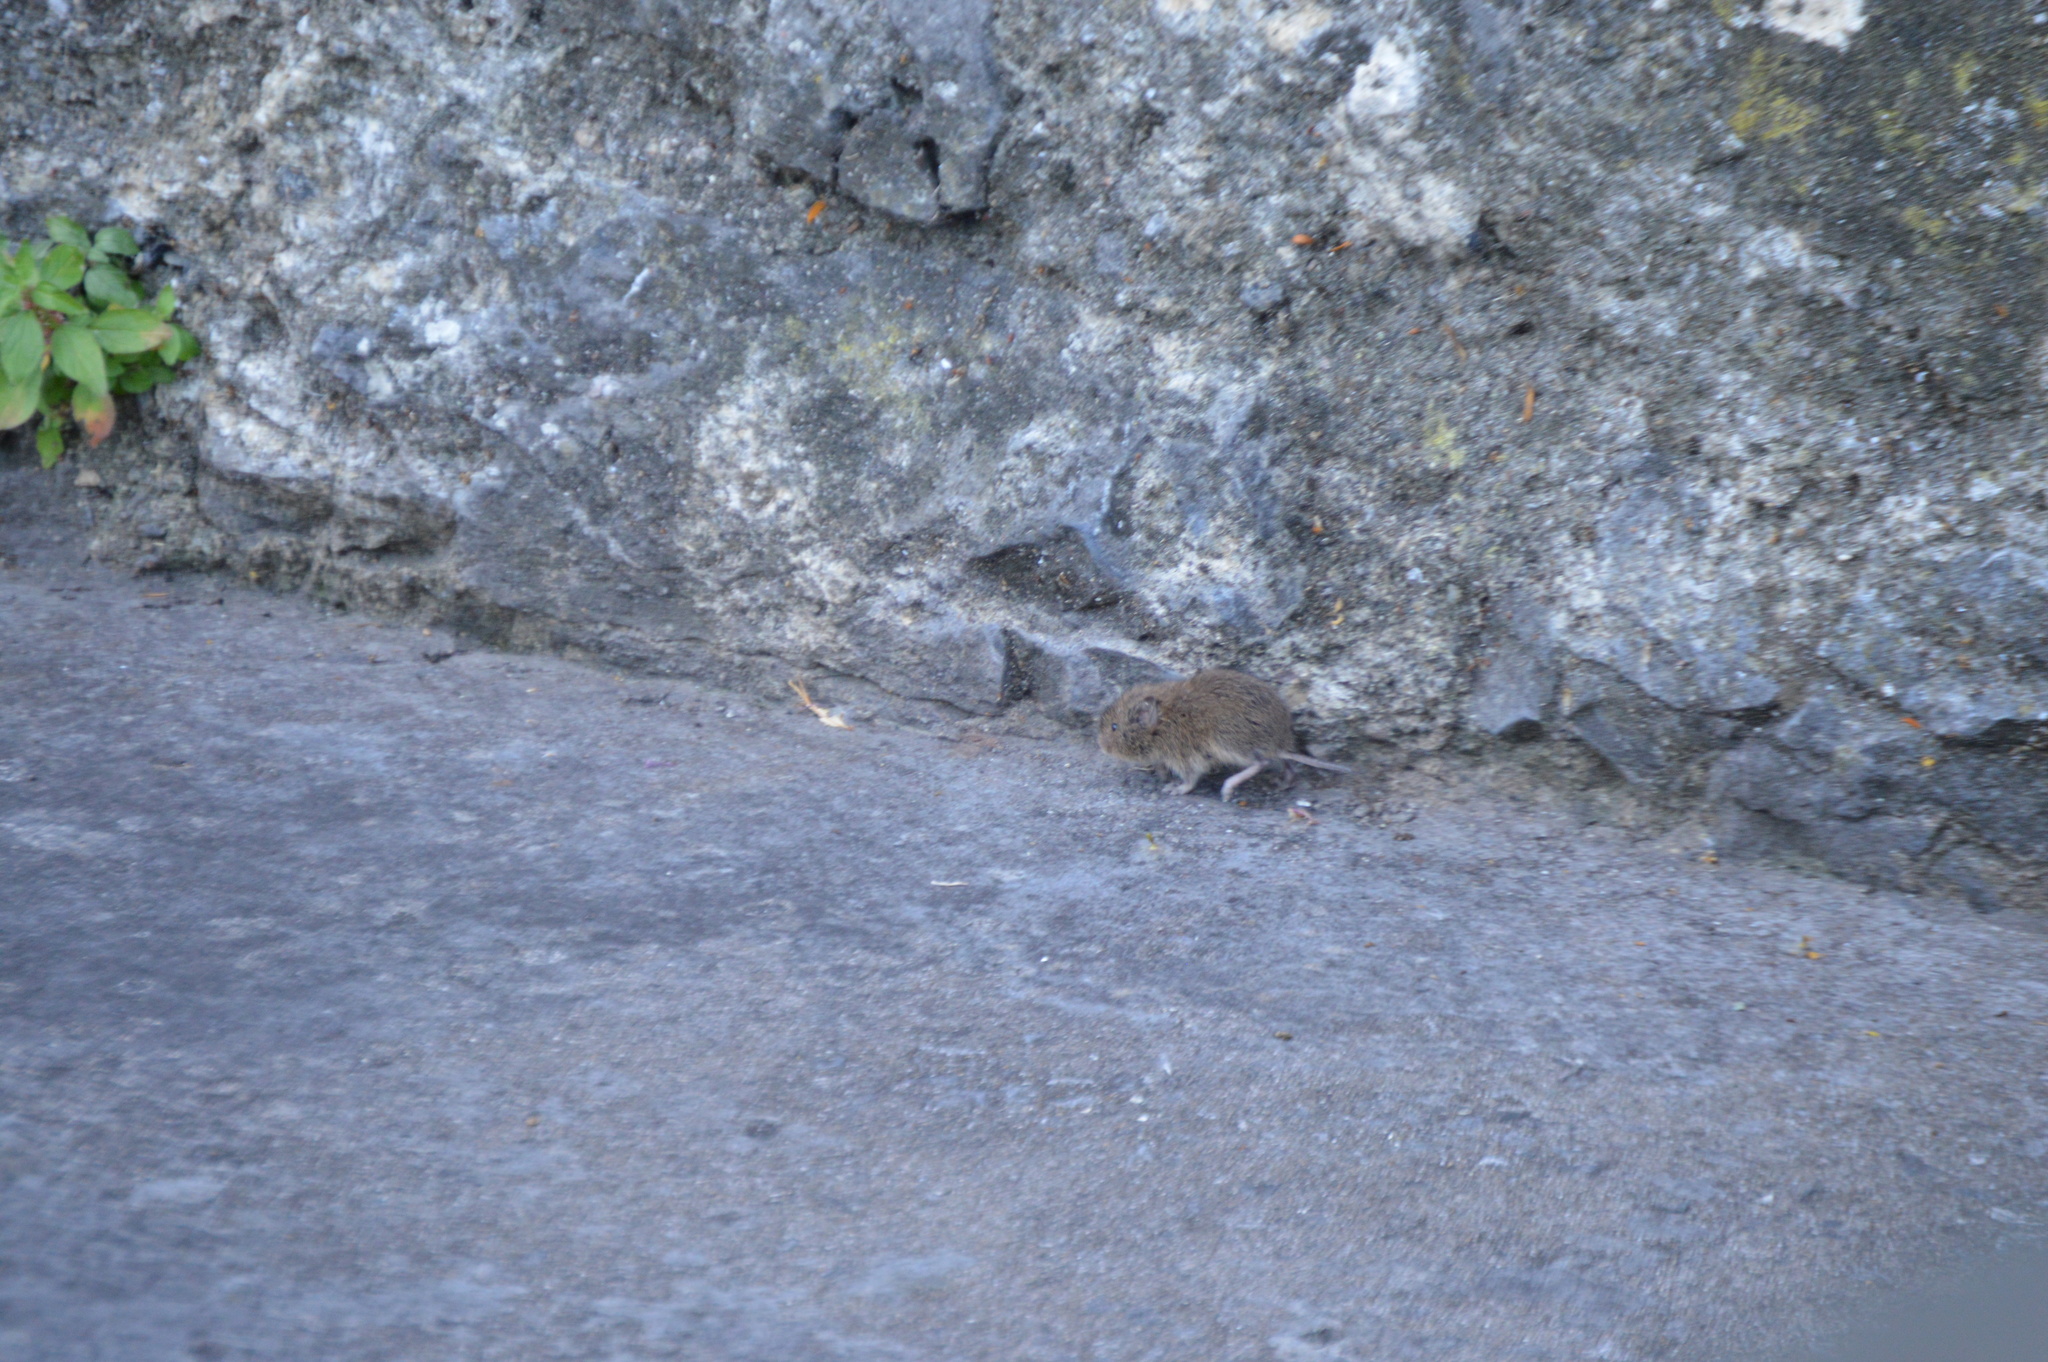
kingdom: Animalia
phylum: Chordata
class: Mammalia
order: Rodentia
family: Cricetidae
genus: Myodes
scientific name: Myodes glareolus
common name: Bank vole
